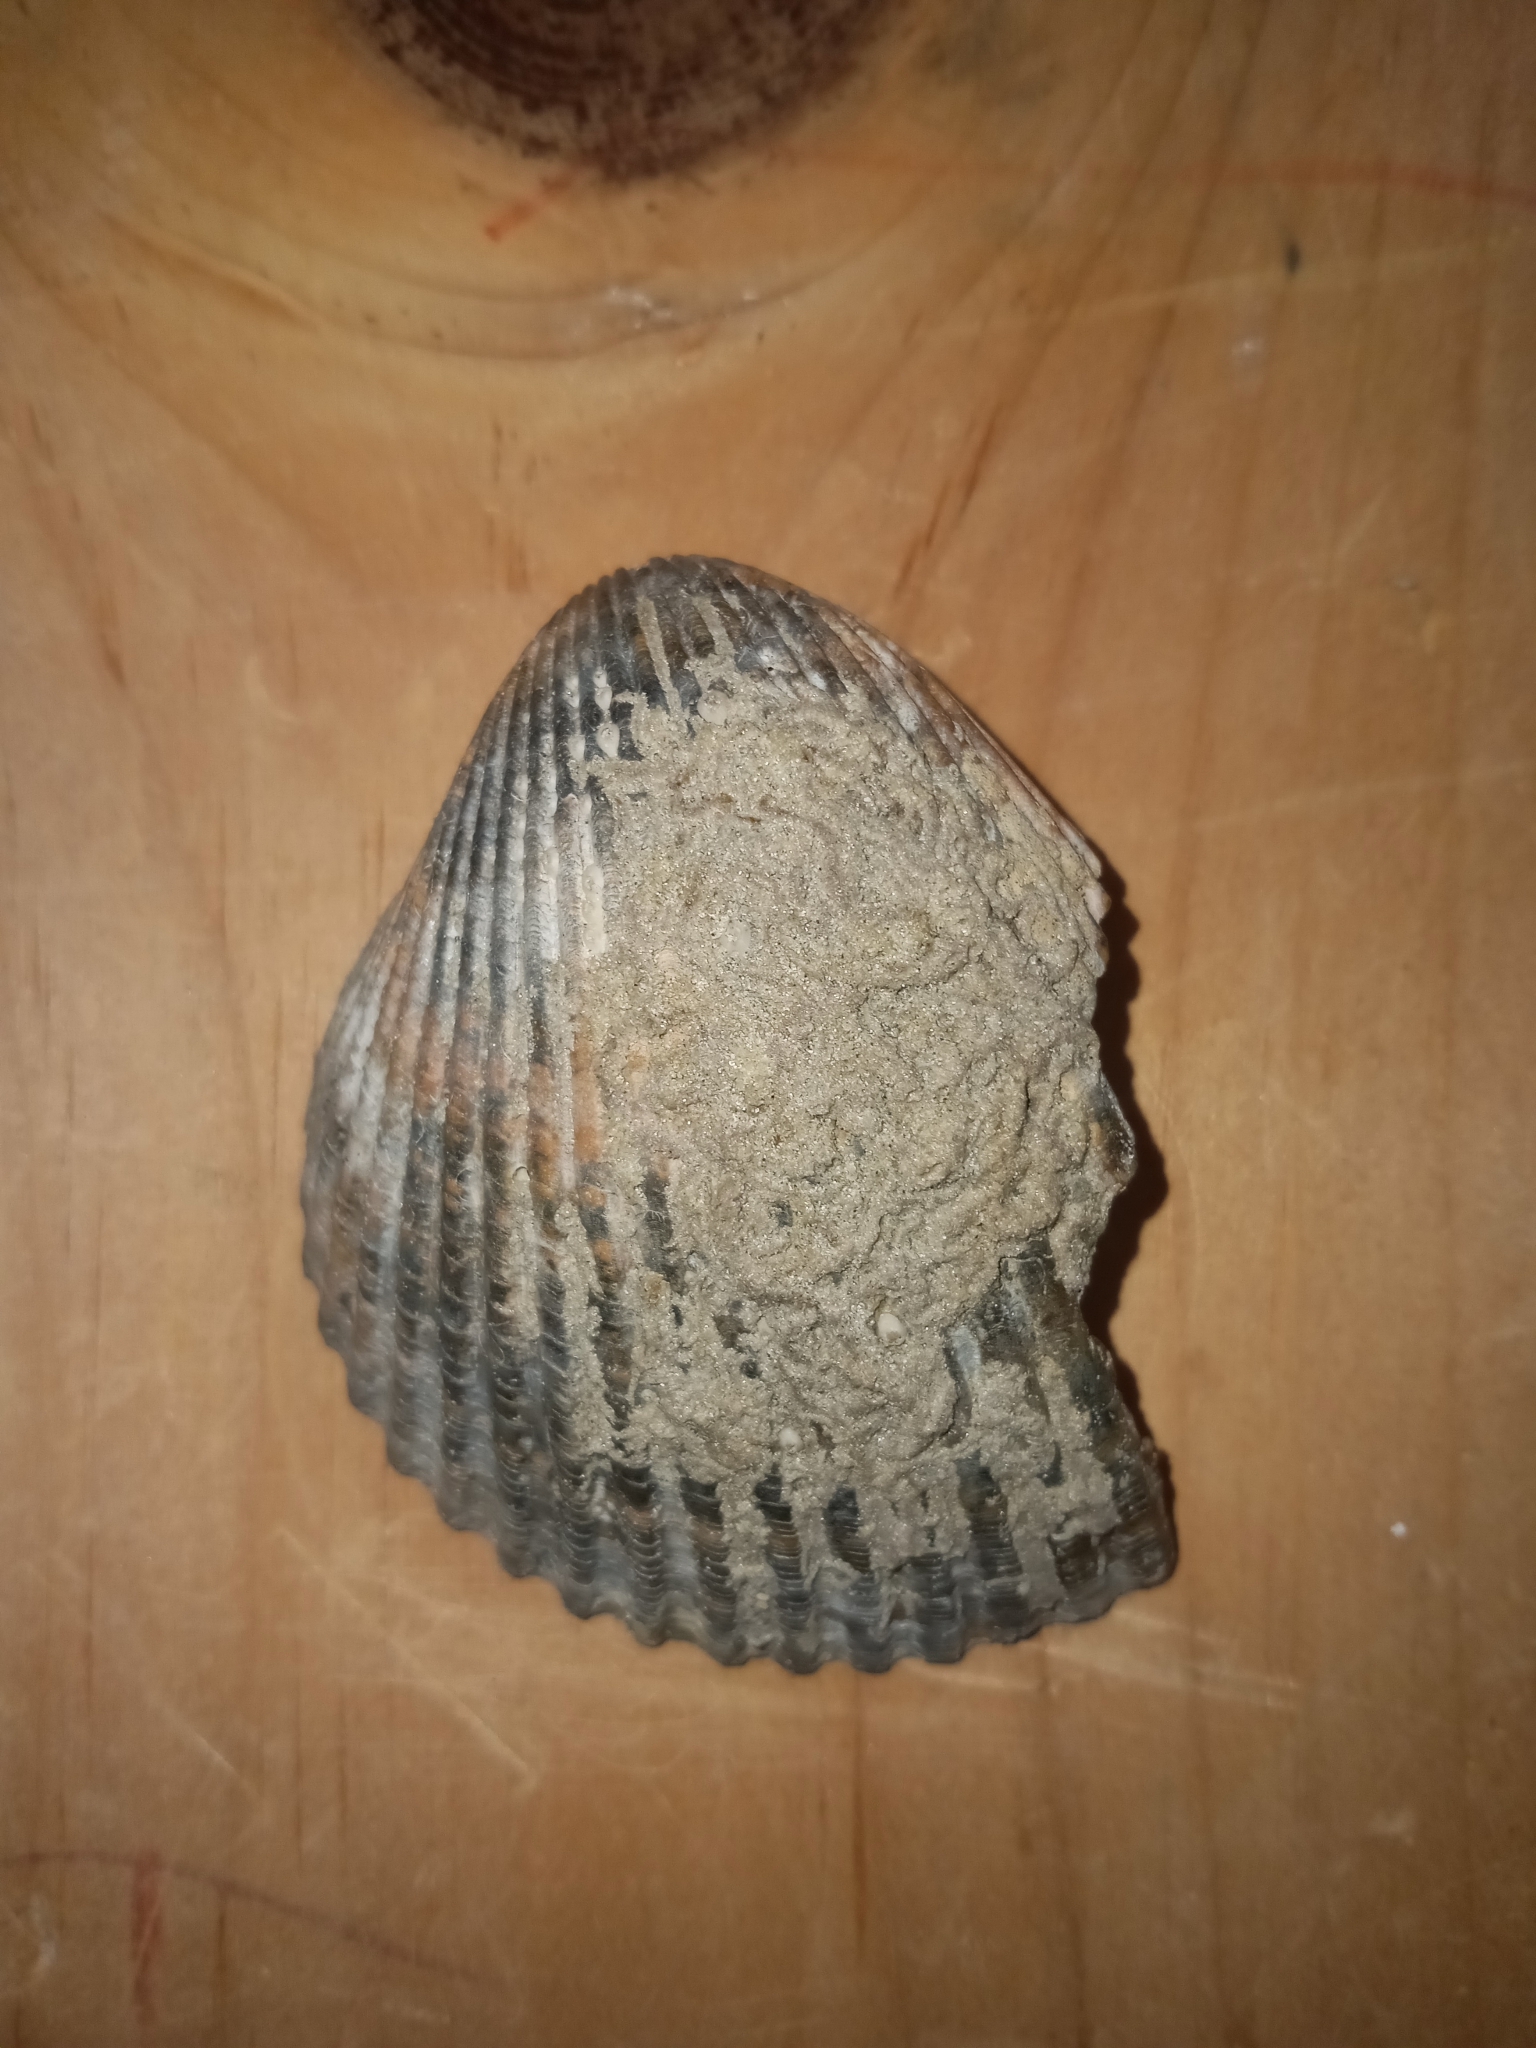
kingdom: Animalia
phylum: Mollusca
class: Bivalvia
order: Cardiida
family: Cardiidae
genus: Dinocardium
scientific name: Dinocardium robustum
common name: Atlantic giant cockle
